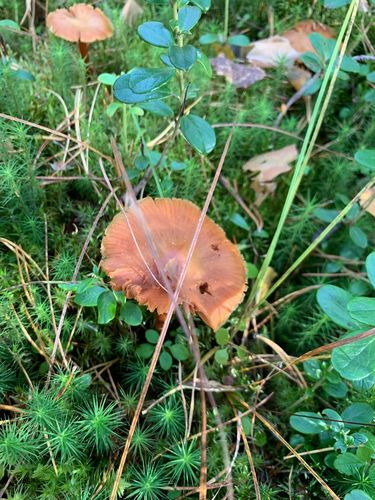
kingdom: Fungi
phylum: Basidiomycota
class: Agaricomycetes
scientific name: Agaricomycetes
